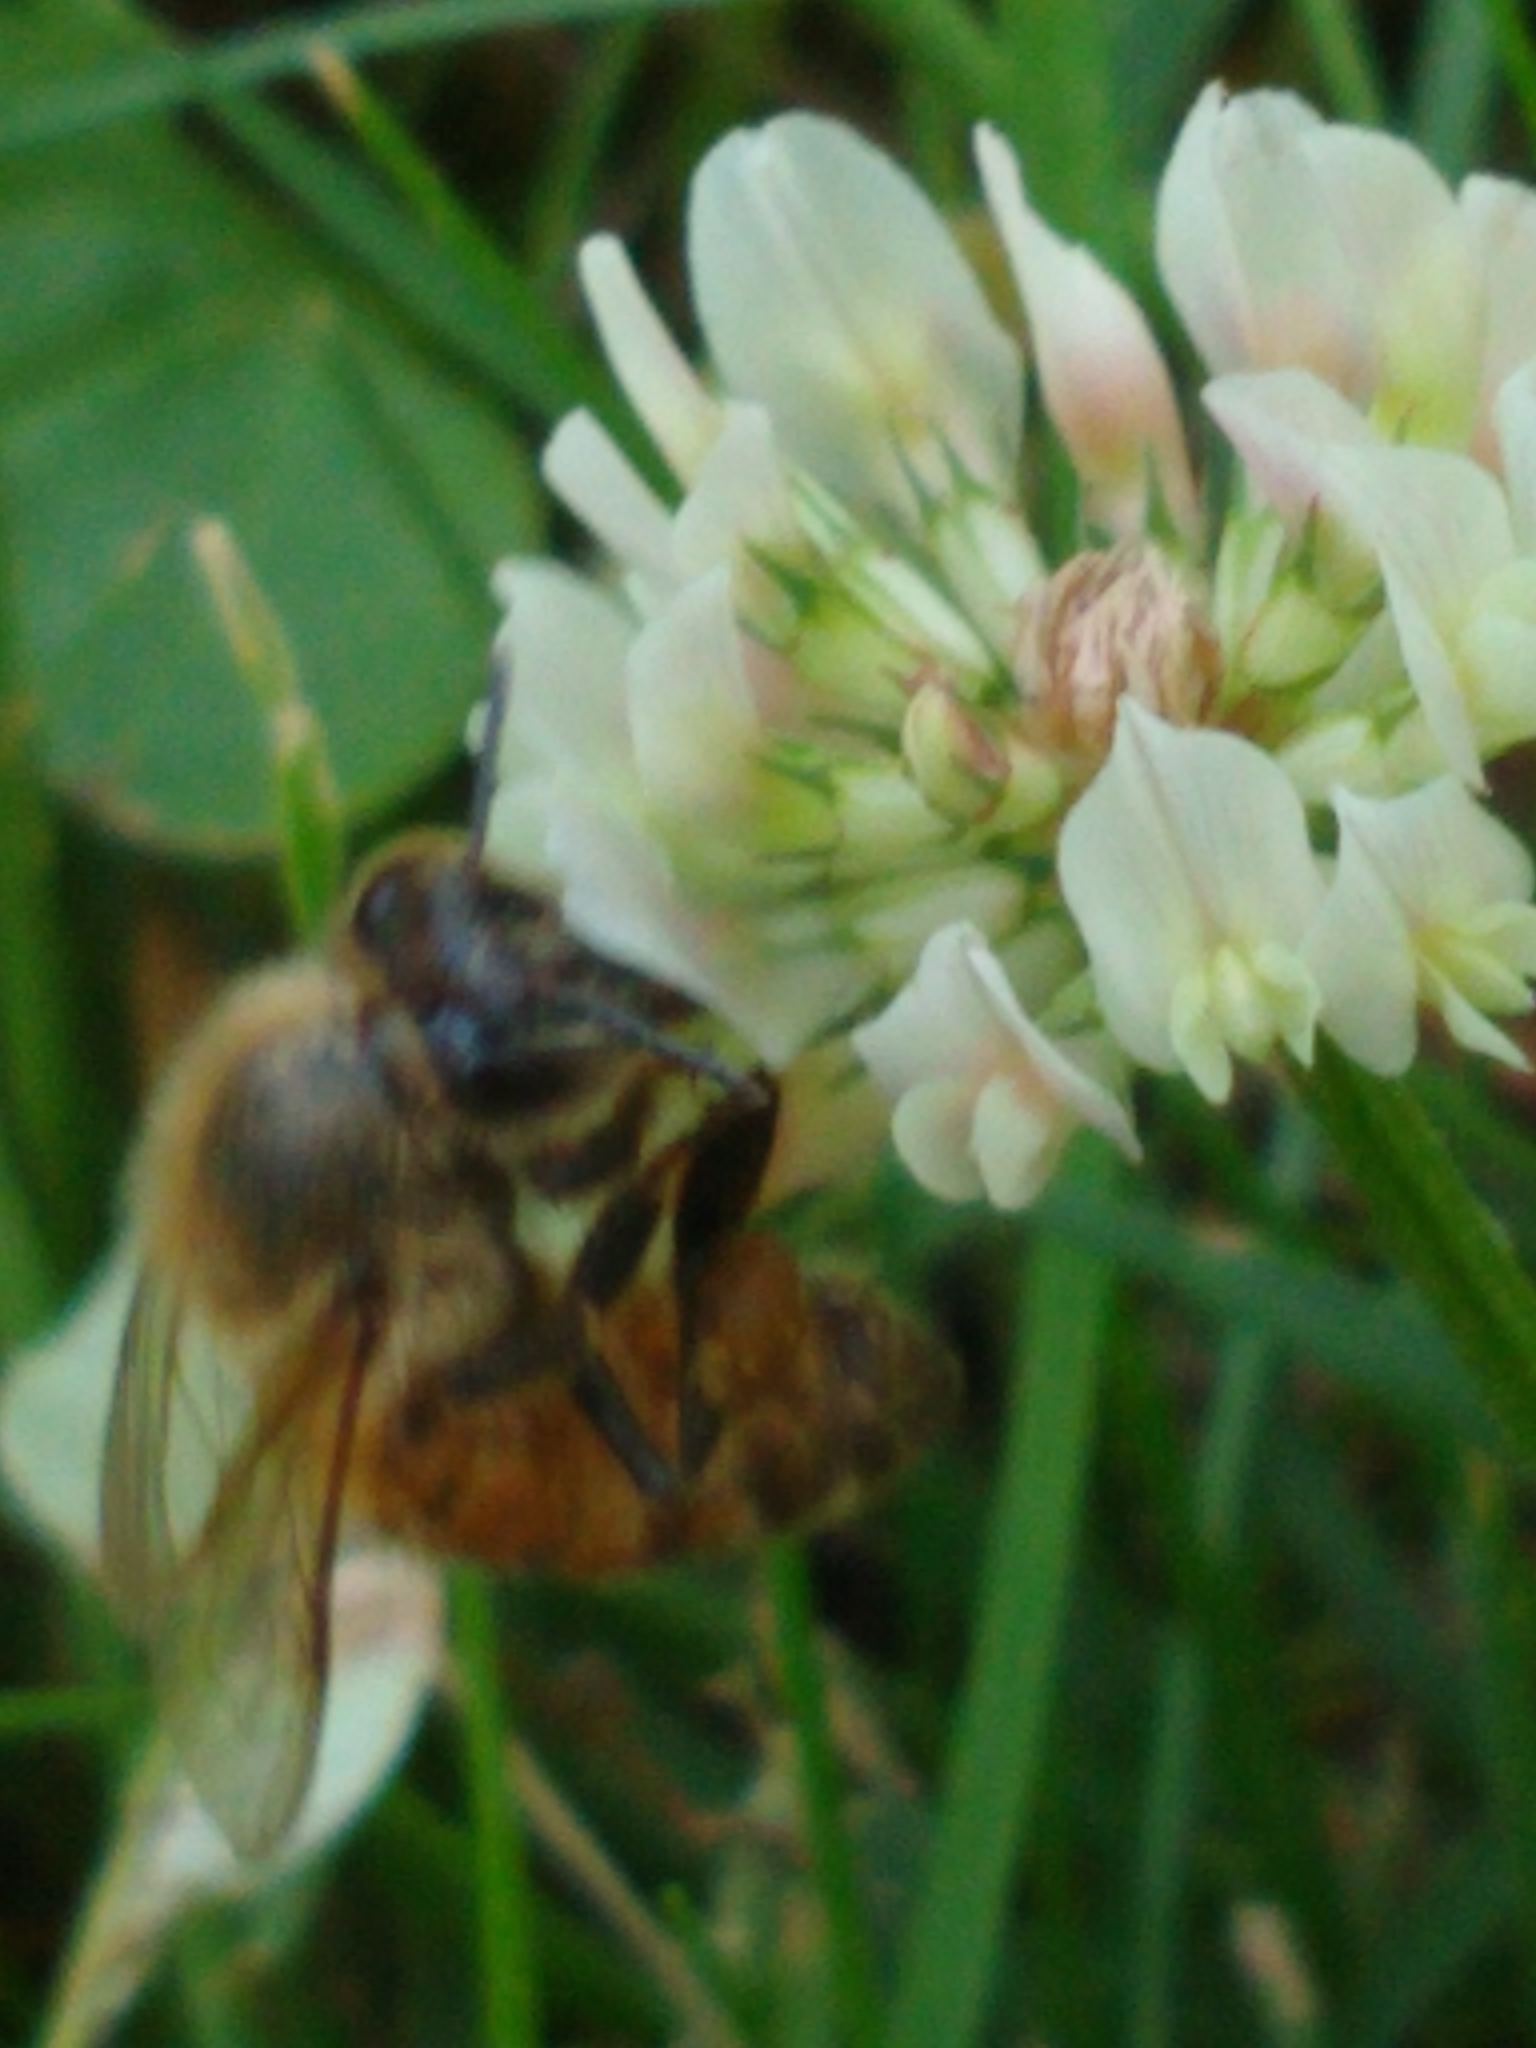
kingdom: Animalia
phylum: Arthropoda
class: Insecta
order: Hymenoptera
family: Apidae
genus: Apis
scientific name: Apis mellifera
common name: Honey bee
